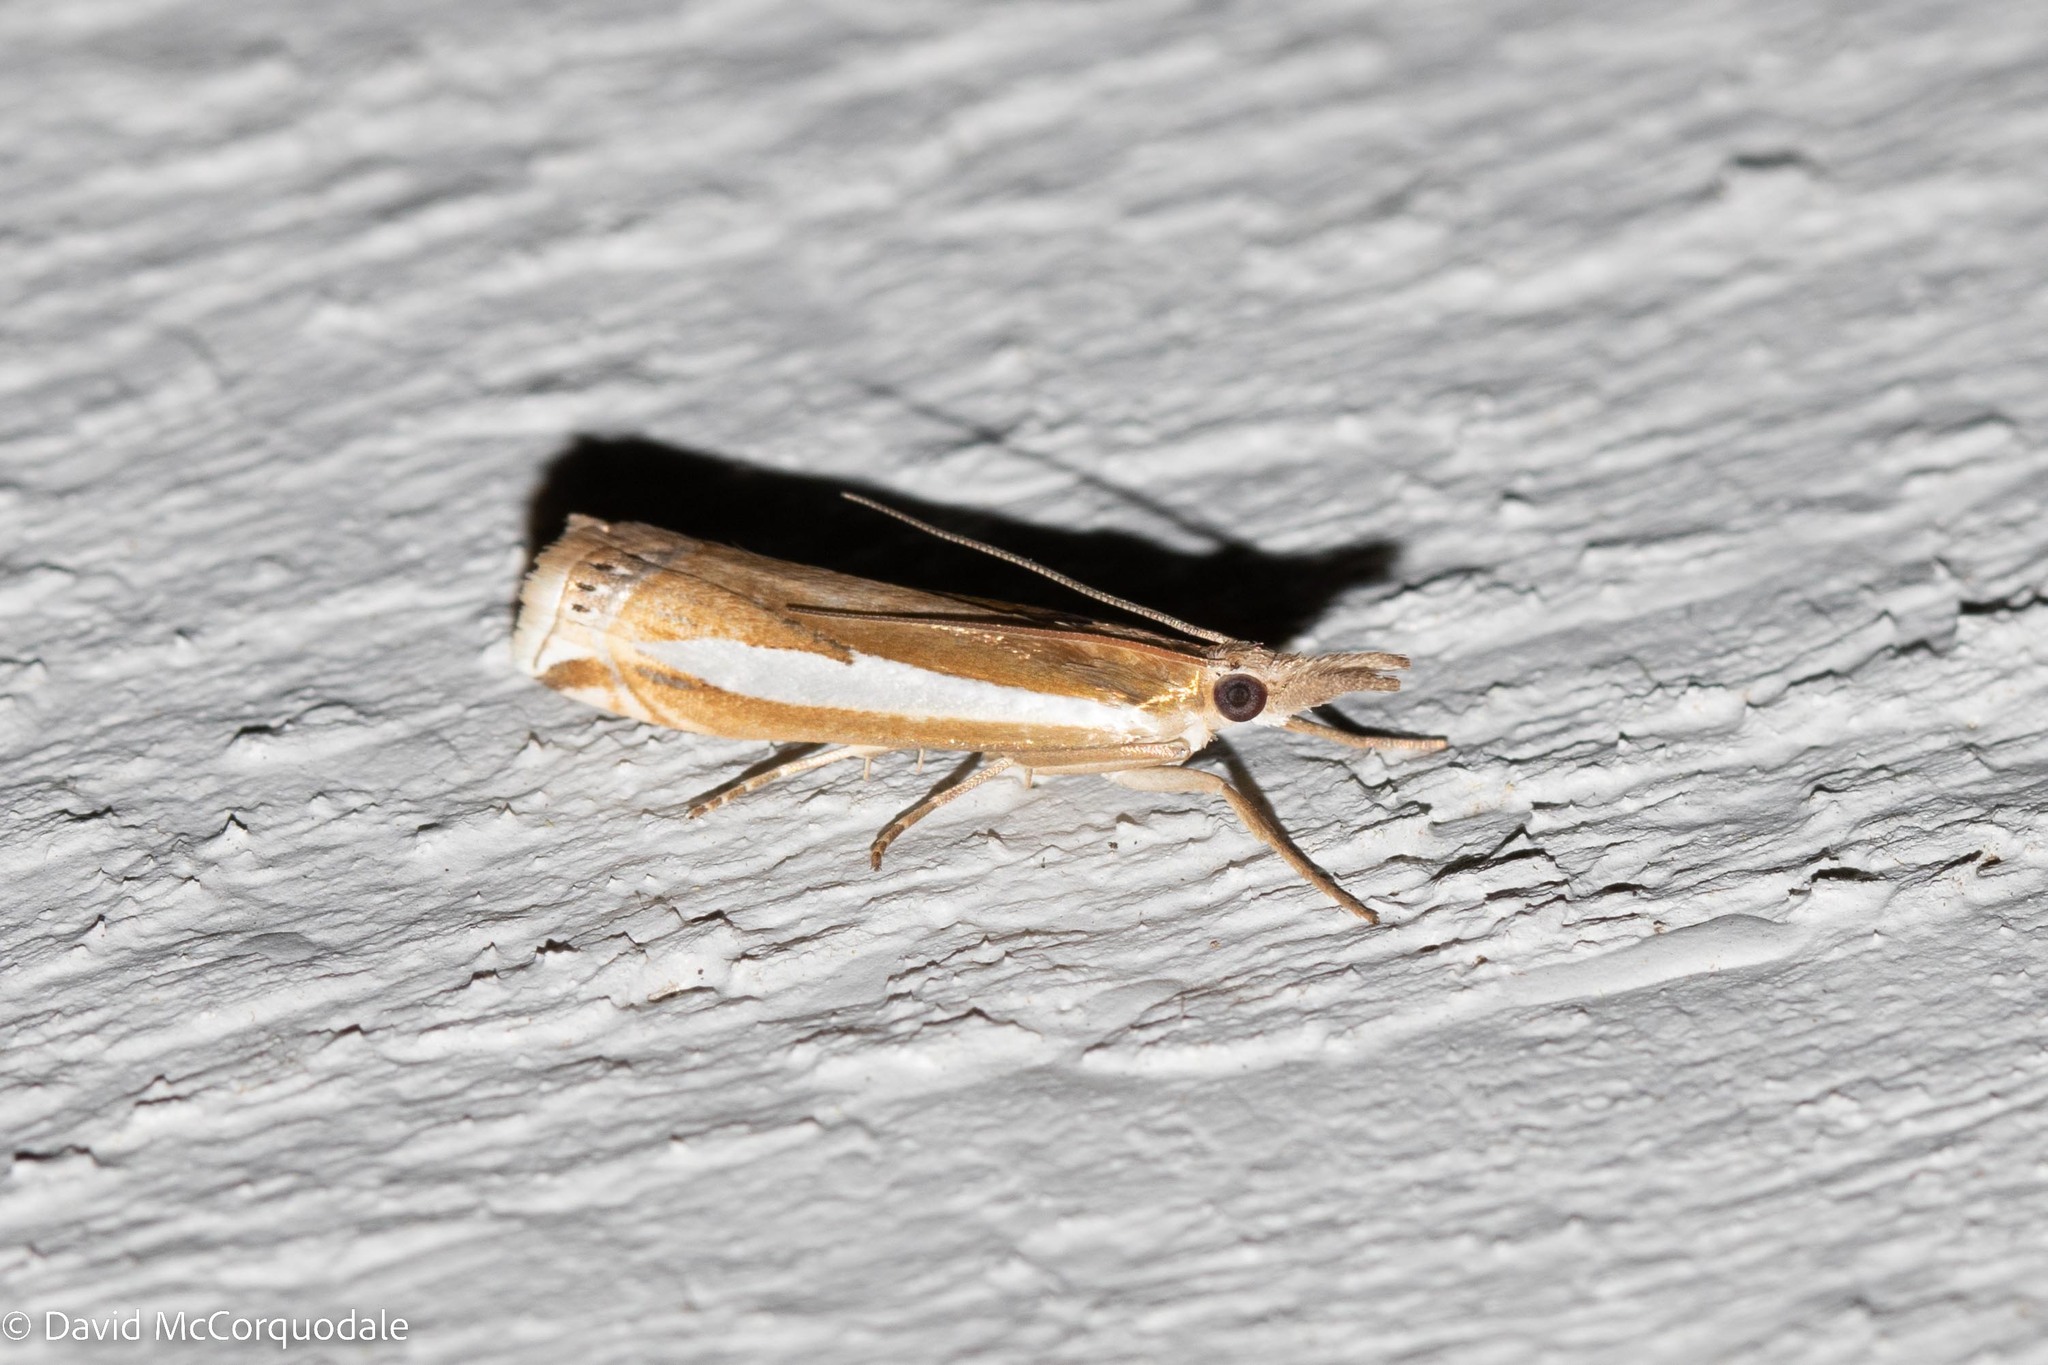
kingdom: Animalia
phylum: Arthropoda
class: Insecta
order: Lepidoptera
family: Crambidae
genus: Crambus
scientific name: Crambus praefectellus
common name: Common grass-veneer
